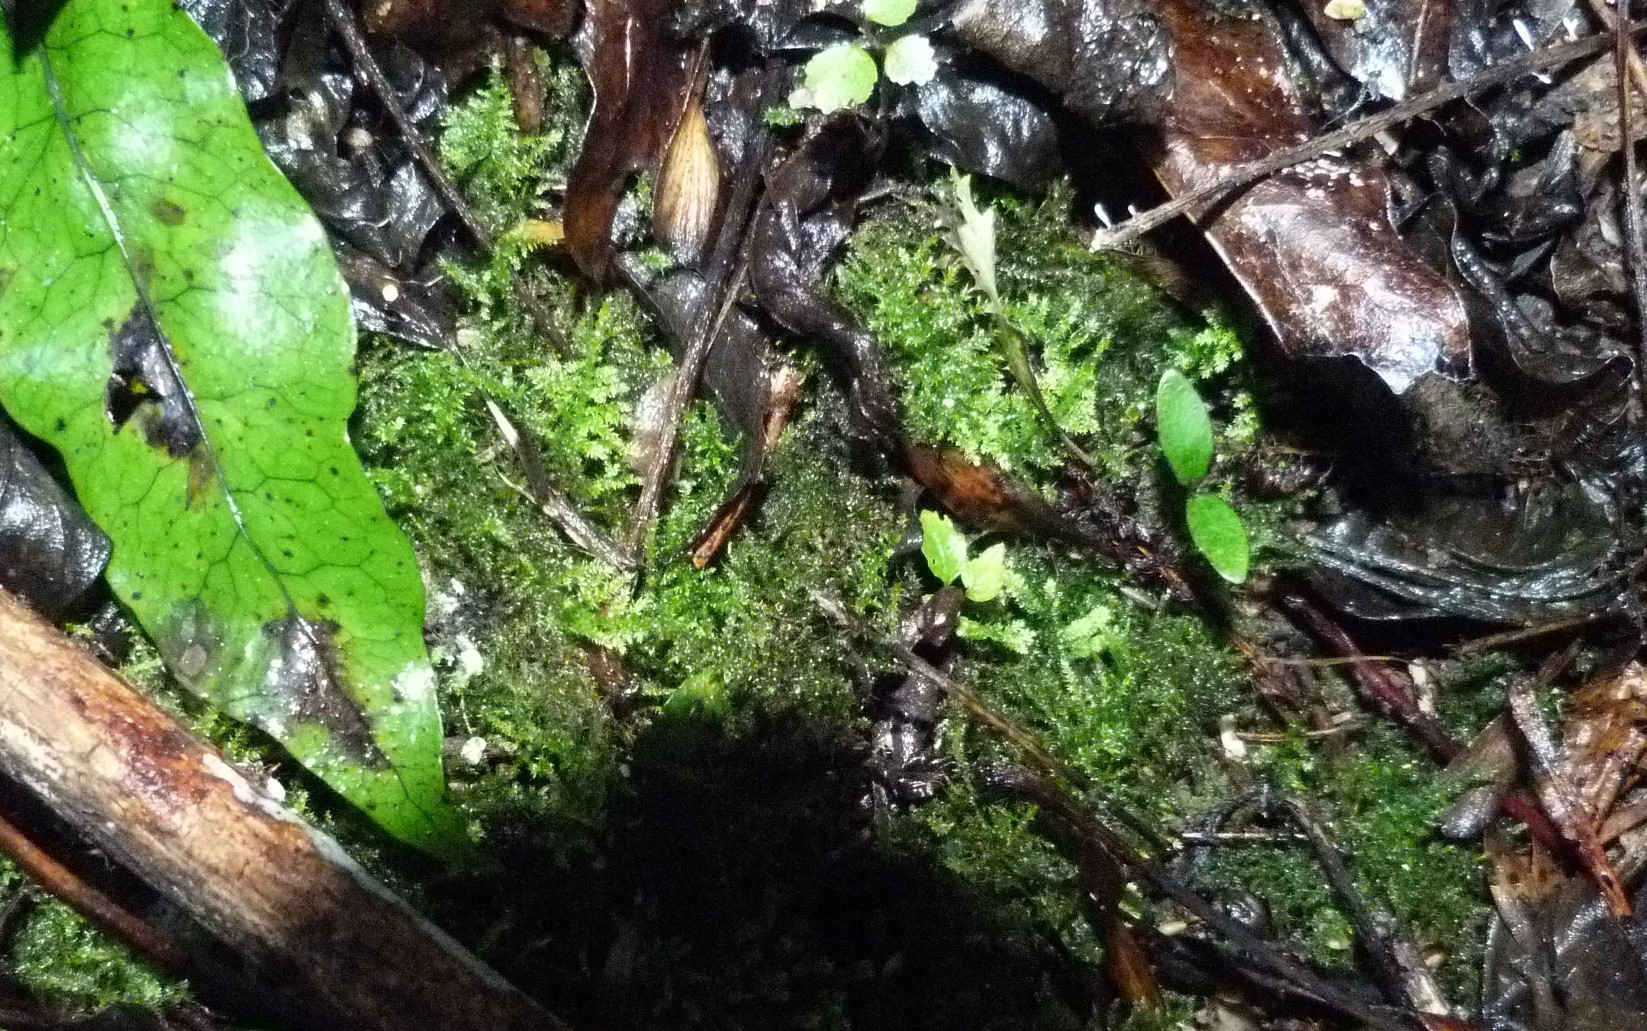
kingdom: Plantae
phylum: Bryophyta
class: Bryopsida
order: Hypnales
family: Brachytheciaceae
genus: Rhynchostegium
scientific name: Rhynchostegium tenuifolium
